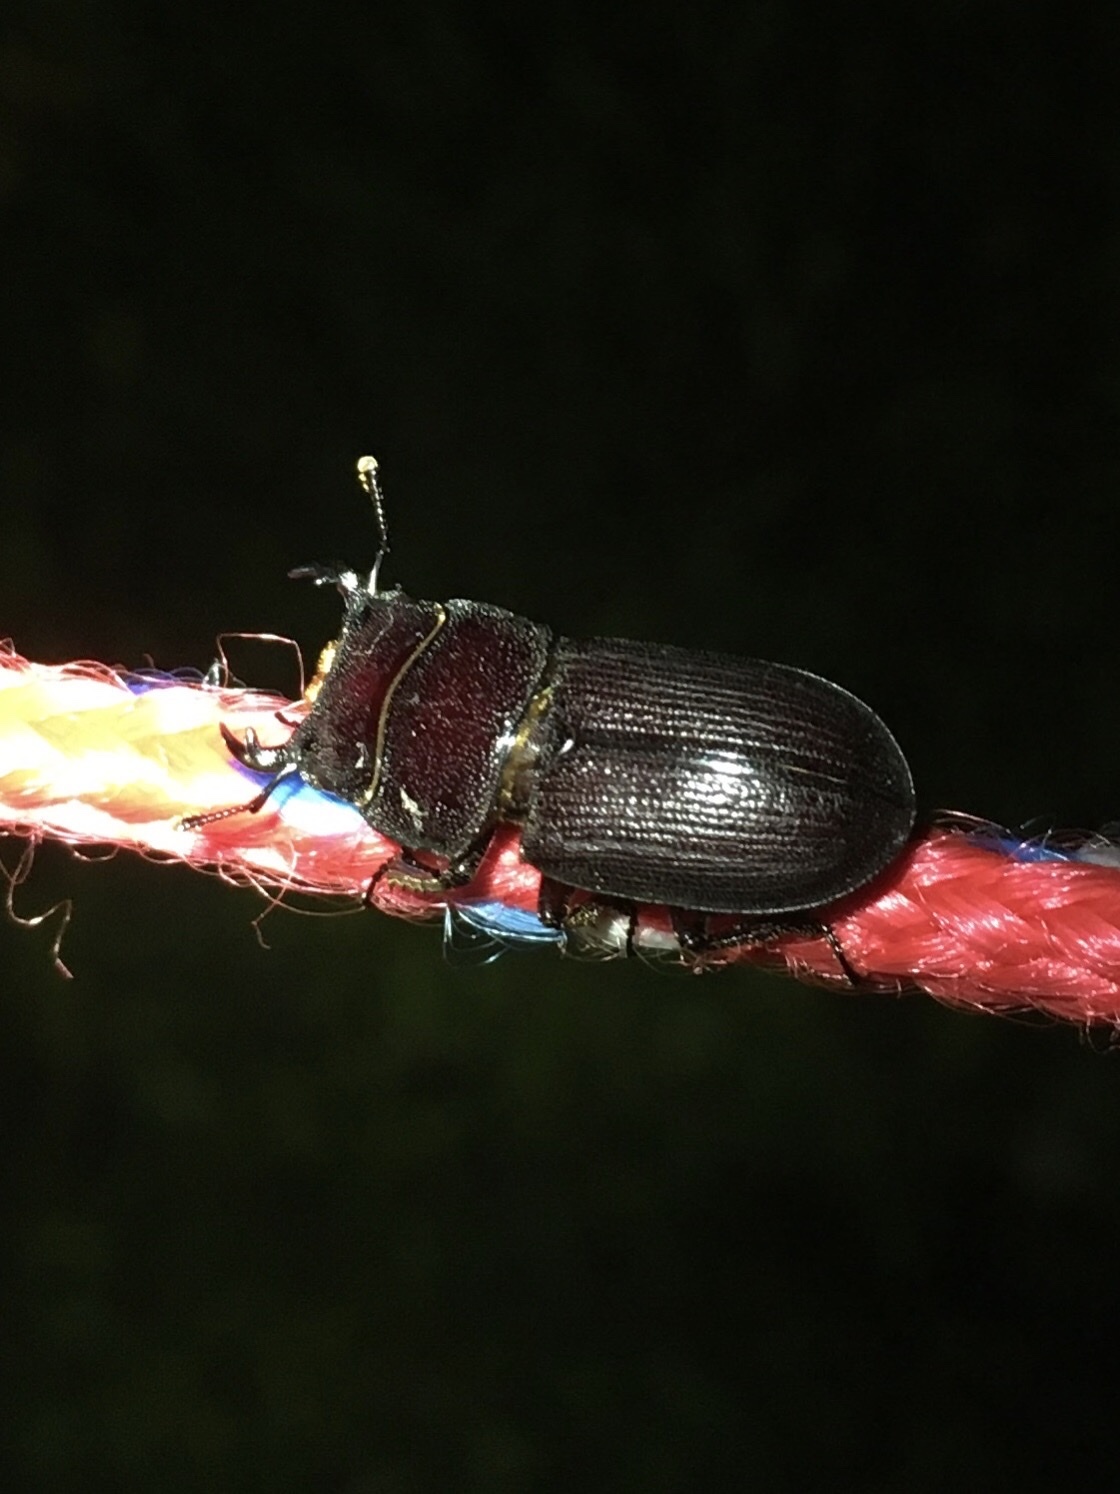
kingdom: Animalia
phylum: Arthropoda
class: Insecta
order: Coleoptera
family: Lucanidae
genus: Dorcus
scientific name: Dorcus parallelus
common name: Antelope beetle
